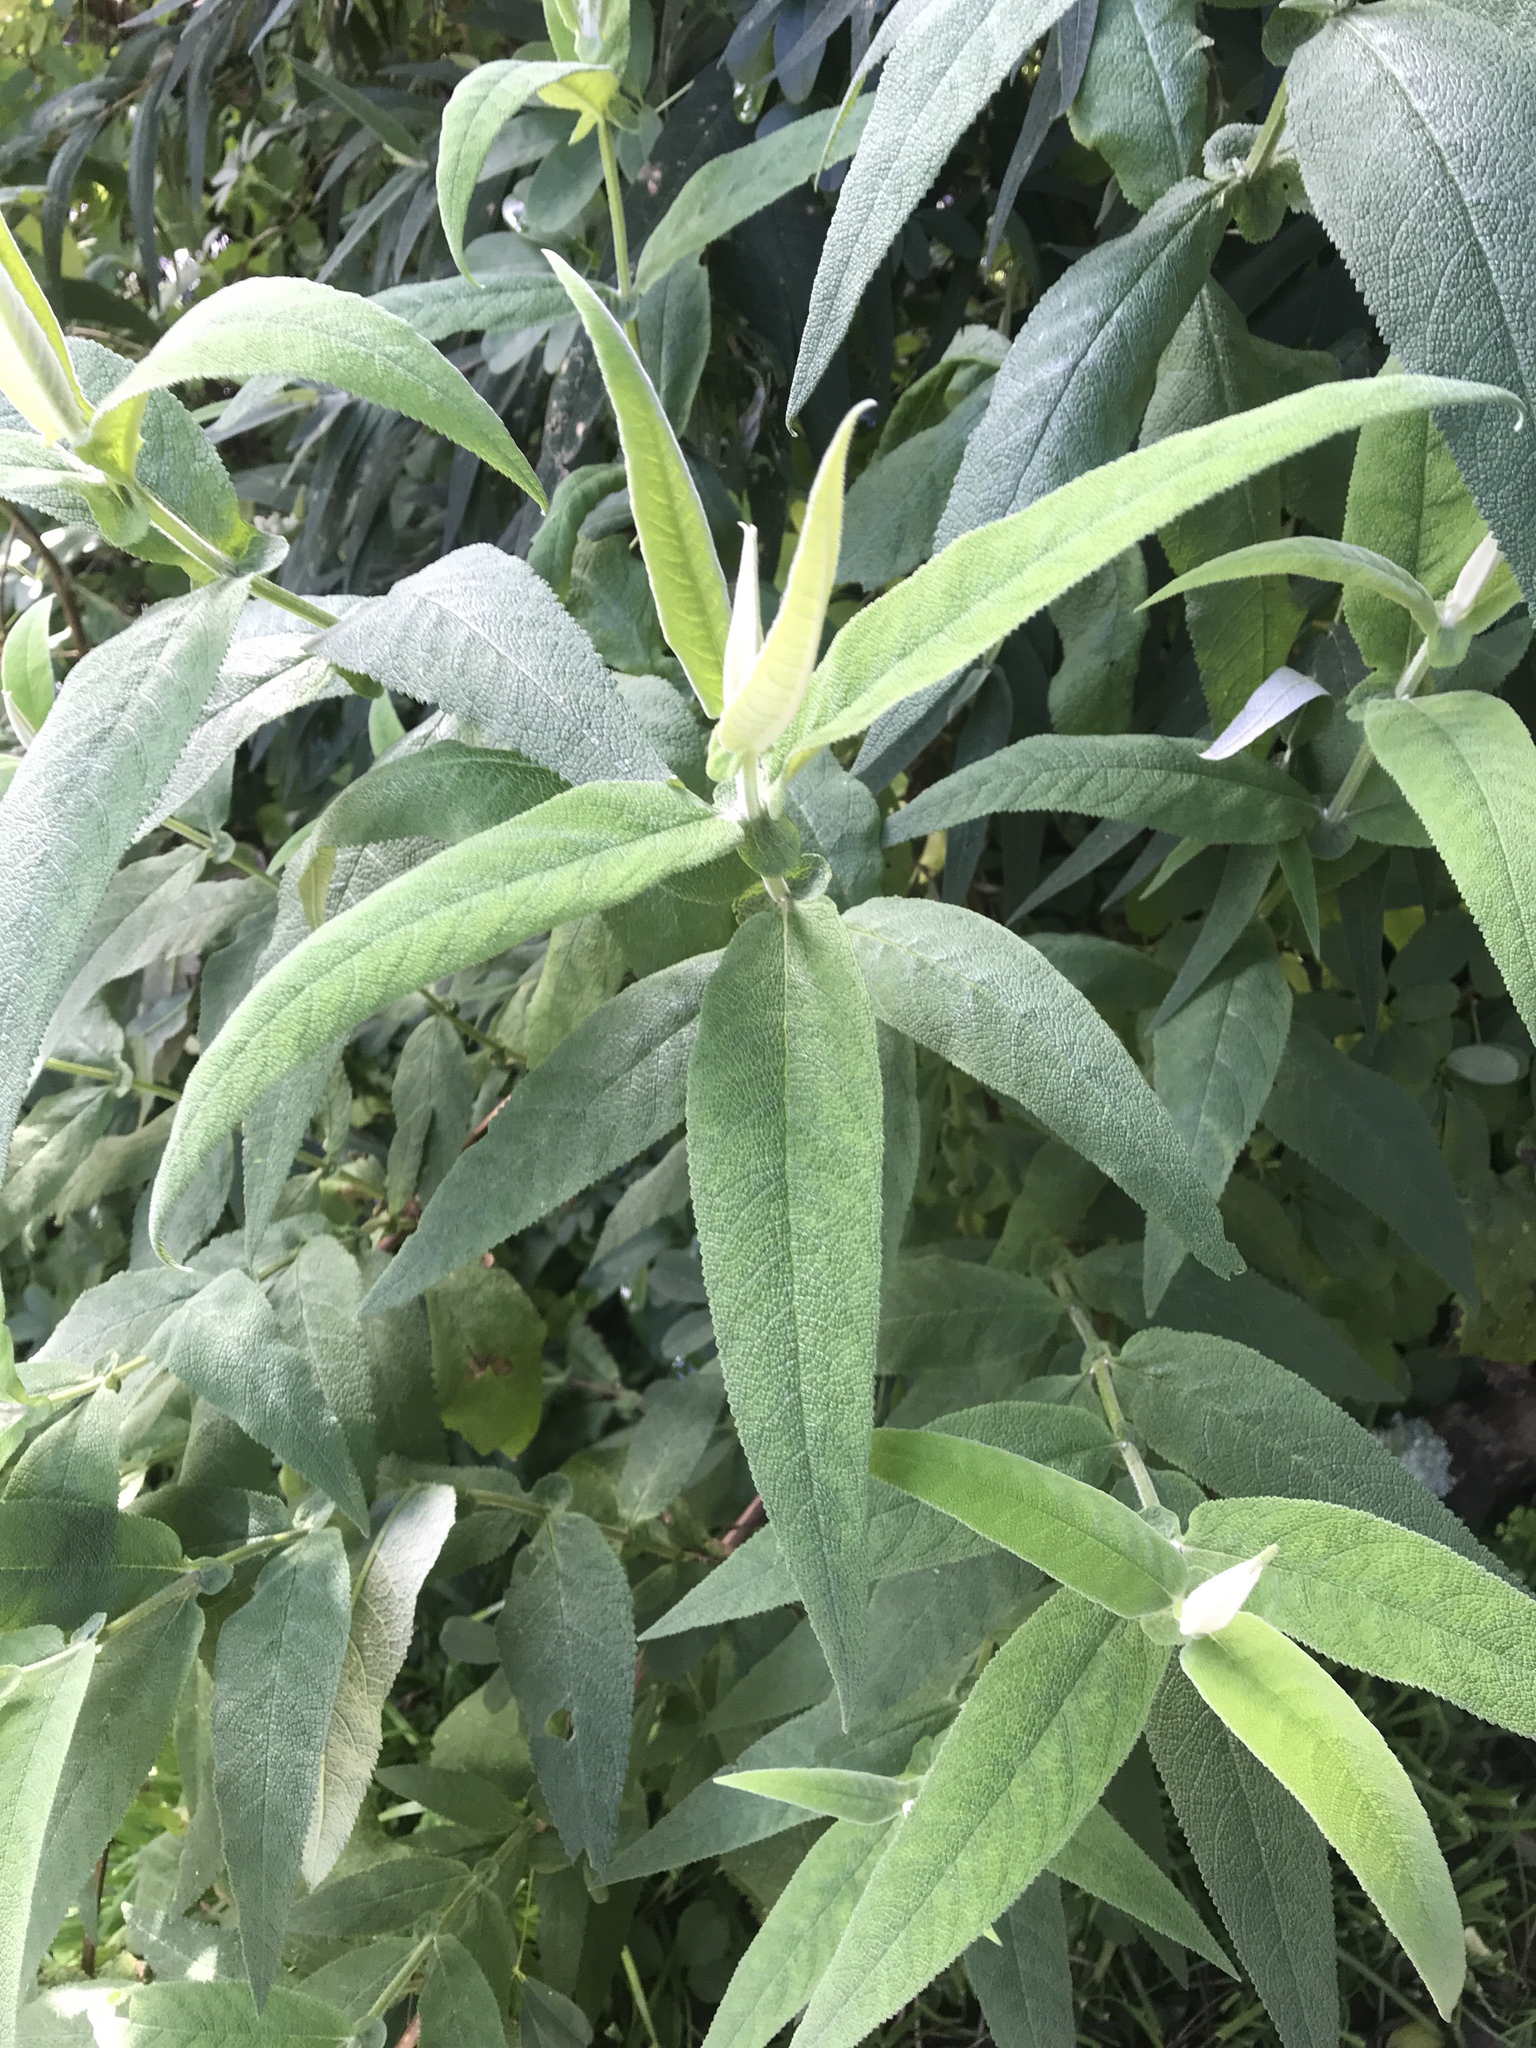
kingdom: Plantae
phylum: Tracheophyta
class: Magnoliopsida
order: Lamiales
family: Scrophulariaceae
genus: Buddleja
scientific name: Buddleja davidii
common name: Butterfly-bush
